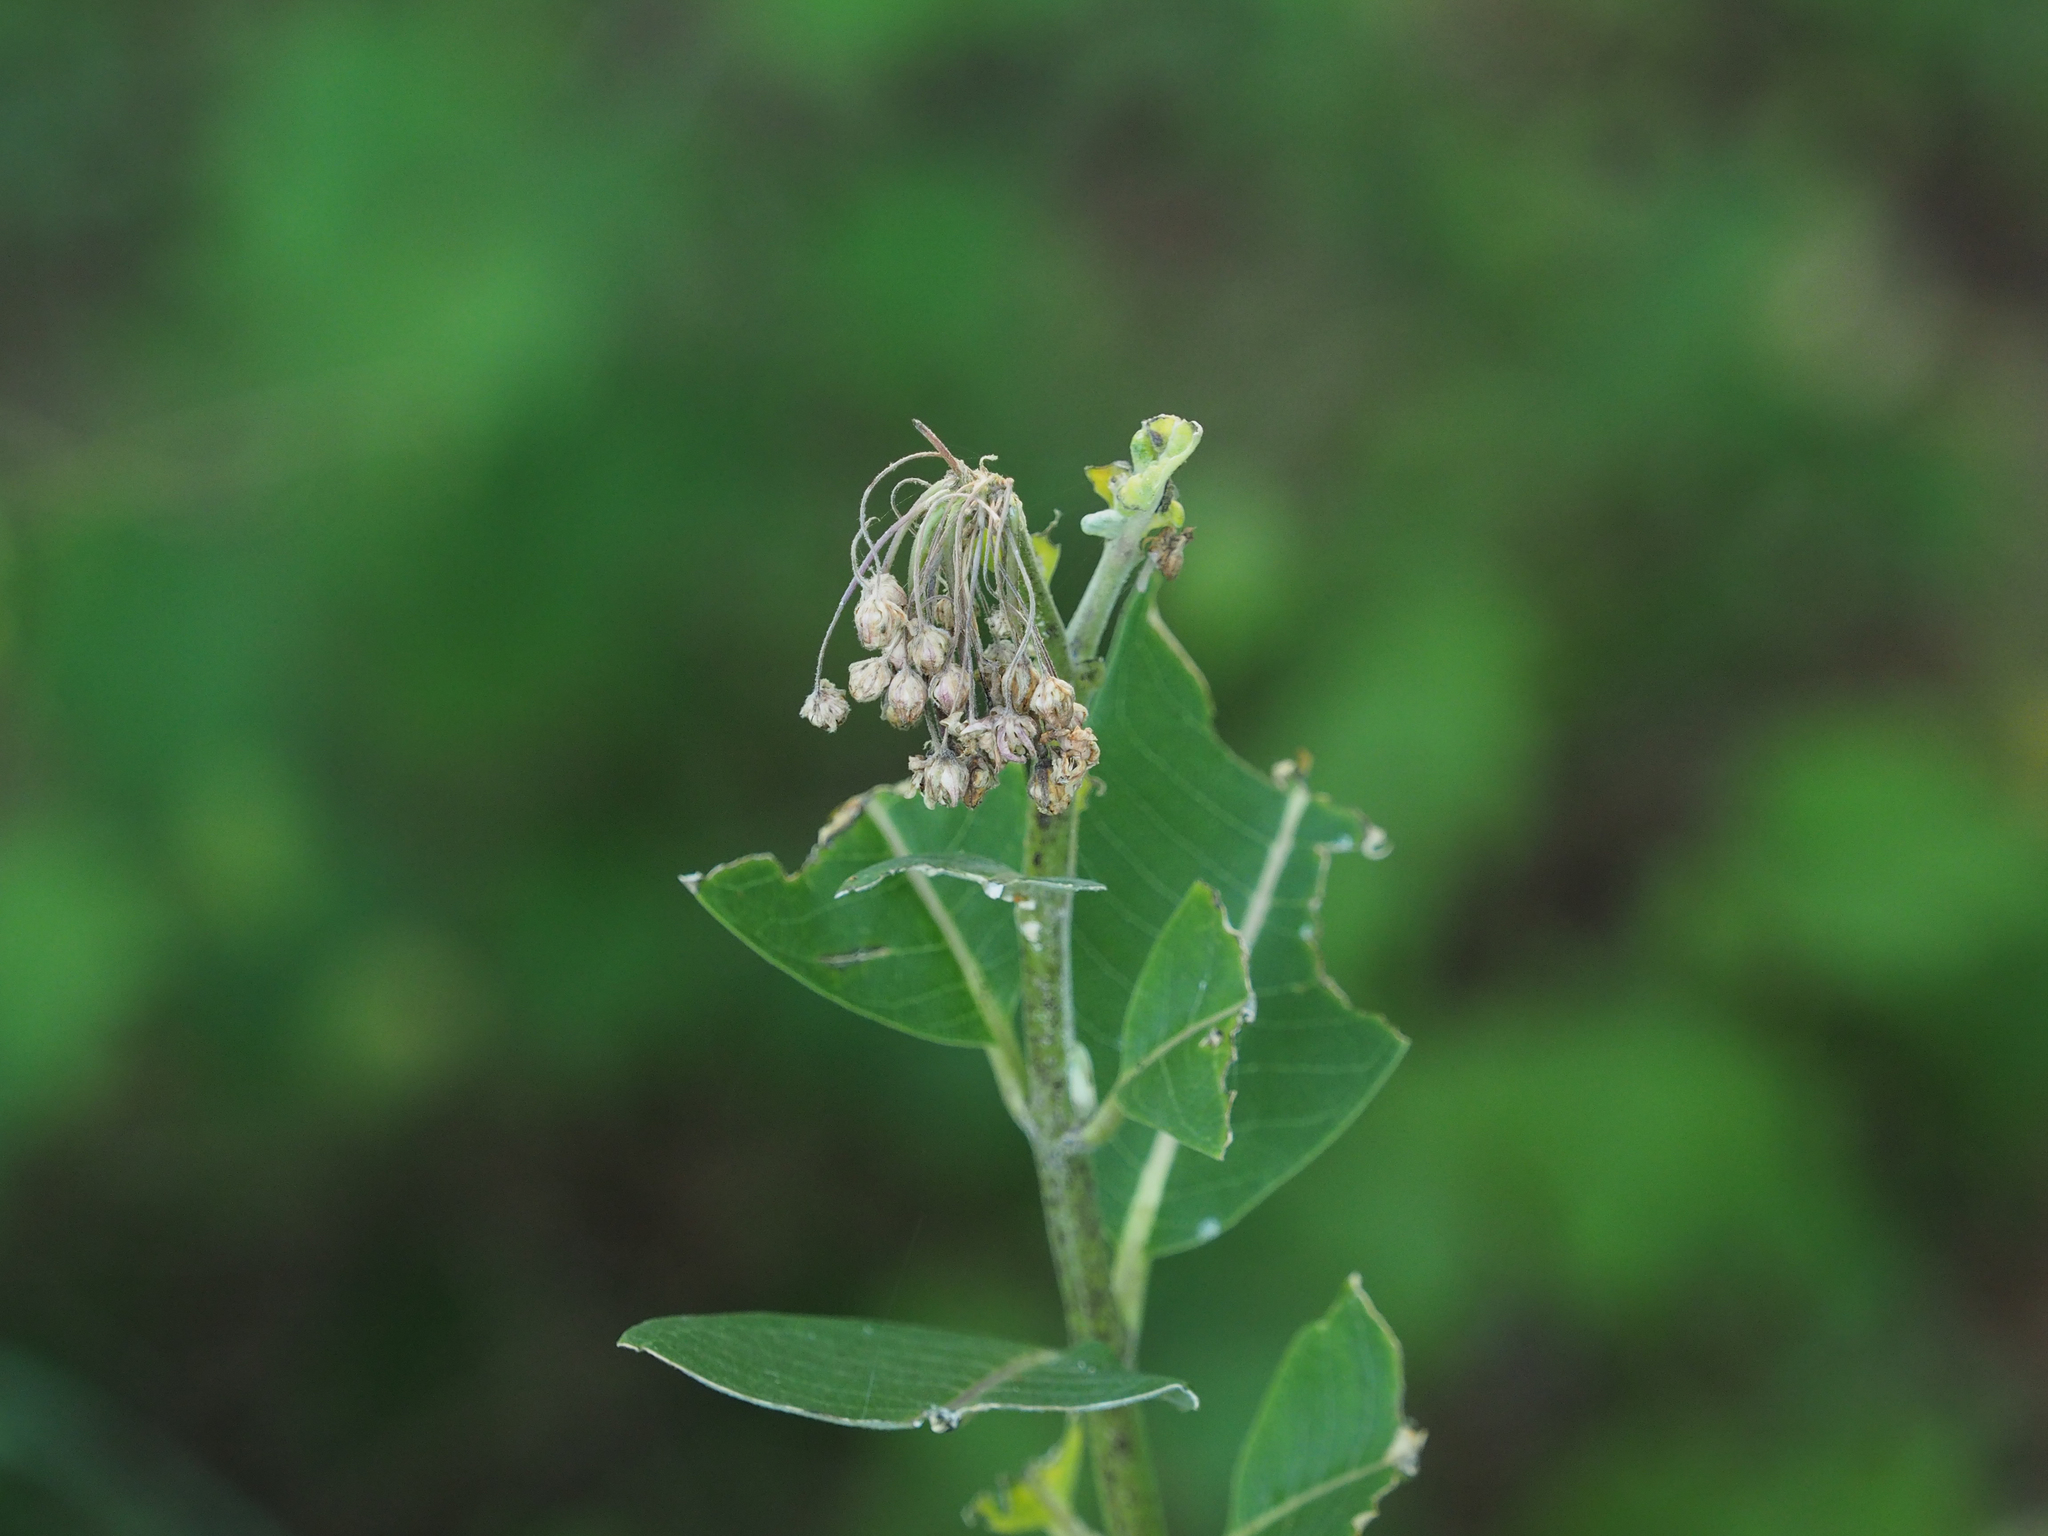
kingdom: Plantae
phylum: Tracheophyta
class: Magnoliopsida
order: Gentianales
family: Apocynaceae
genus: Asclepias
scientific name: Asclepias syriaca
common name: Common milkweed
